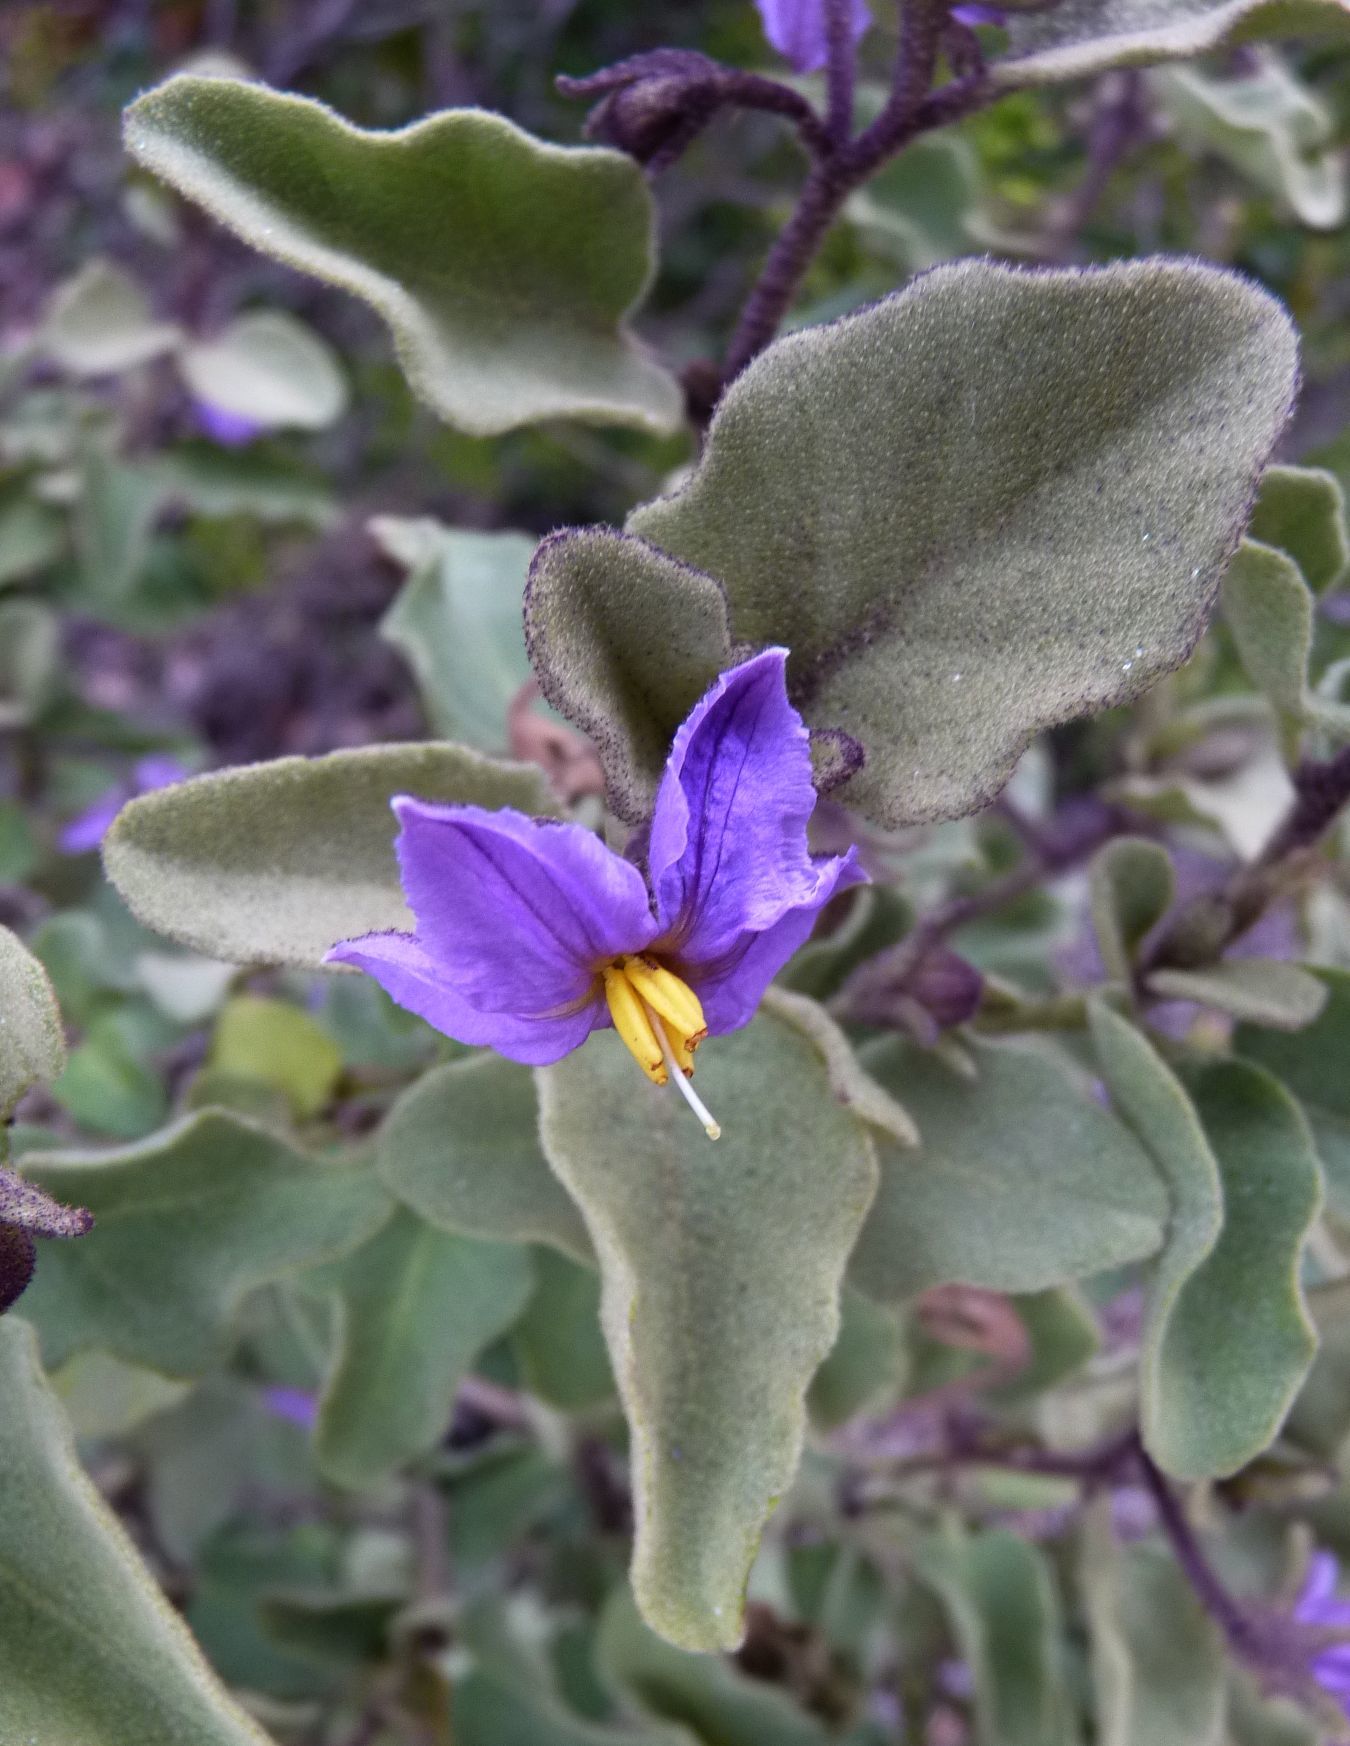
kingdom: Plantae
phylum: Tracheophyta
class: Magnoliopsida
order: Solanales
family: Solanaceae
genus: Solanum
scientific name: Solanum tomentosum
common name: Wild aubergine
